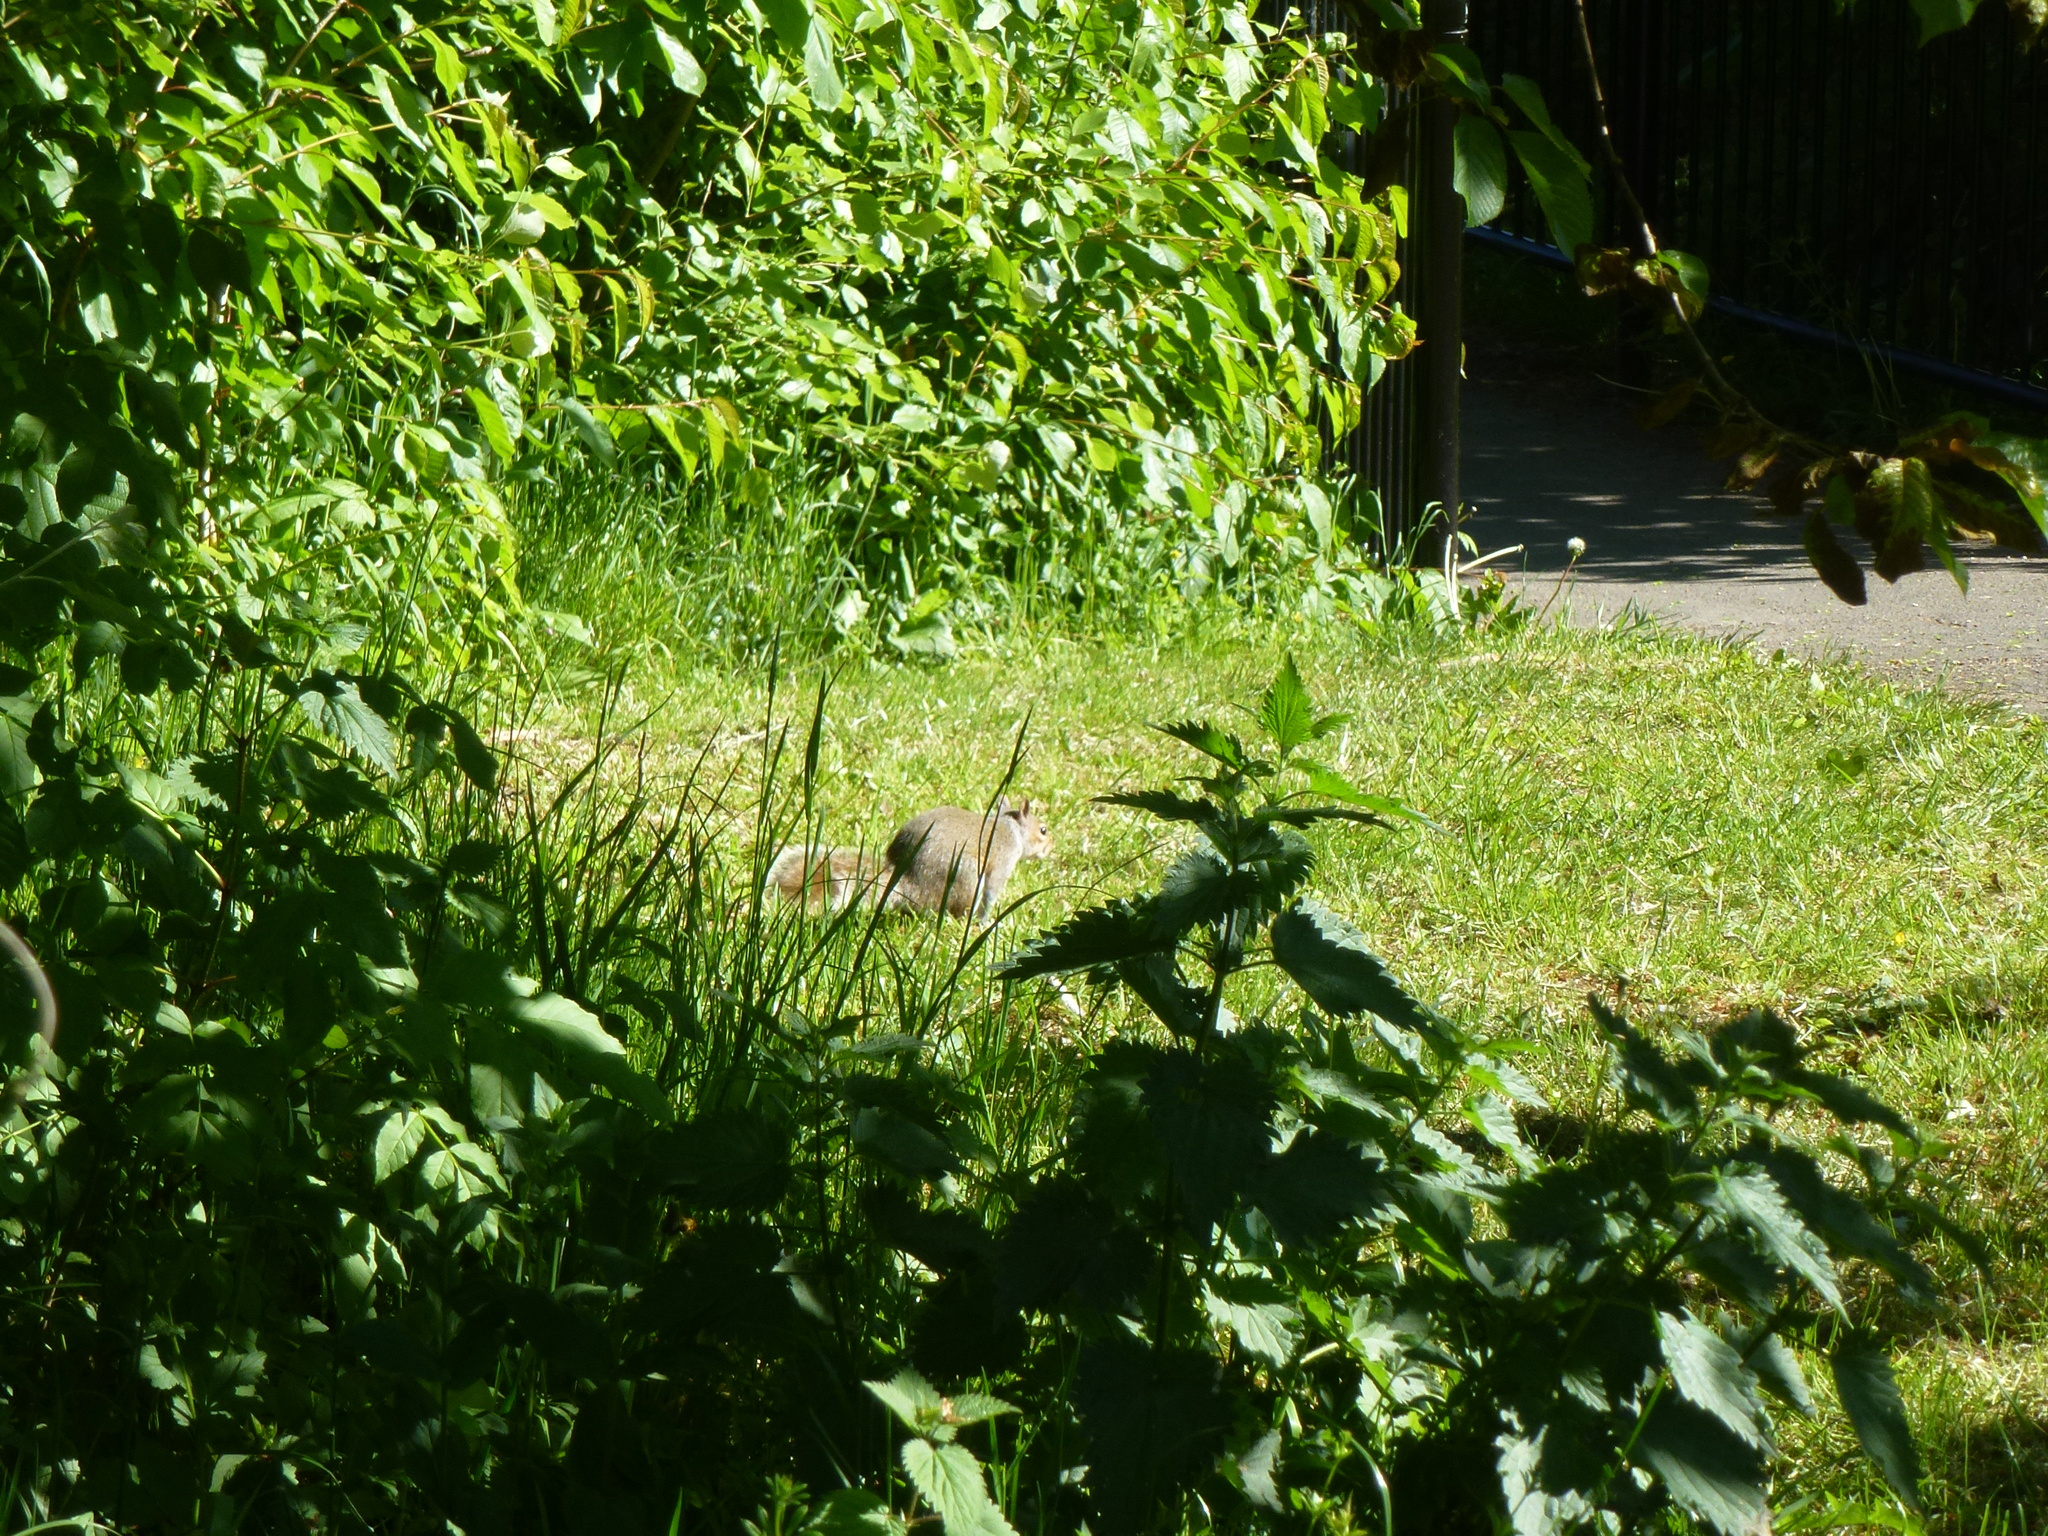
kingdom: Animalia
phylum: Chordata
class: Mammalia
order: Rodentia
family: Sciuridae
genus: Sciurus
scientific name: Sciurus carolinensis
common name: Eastern gray squirrel
